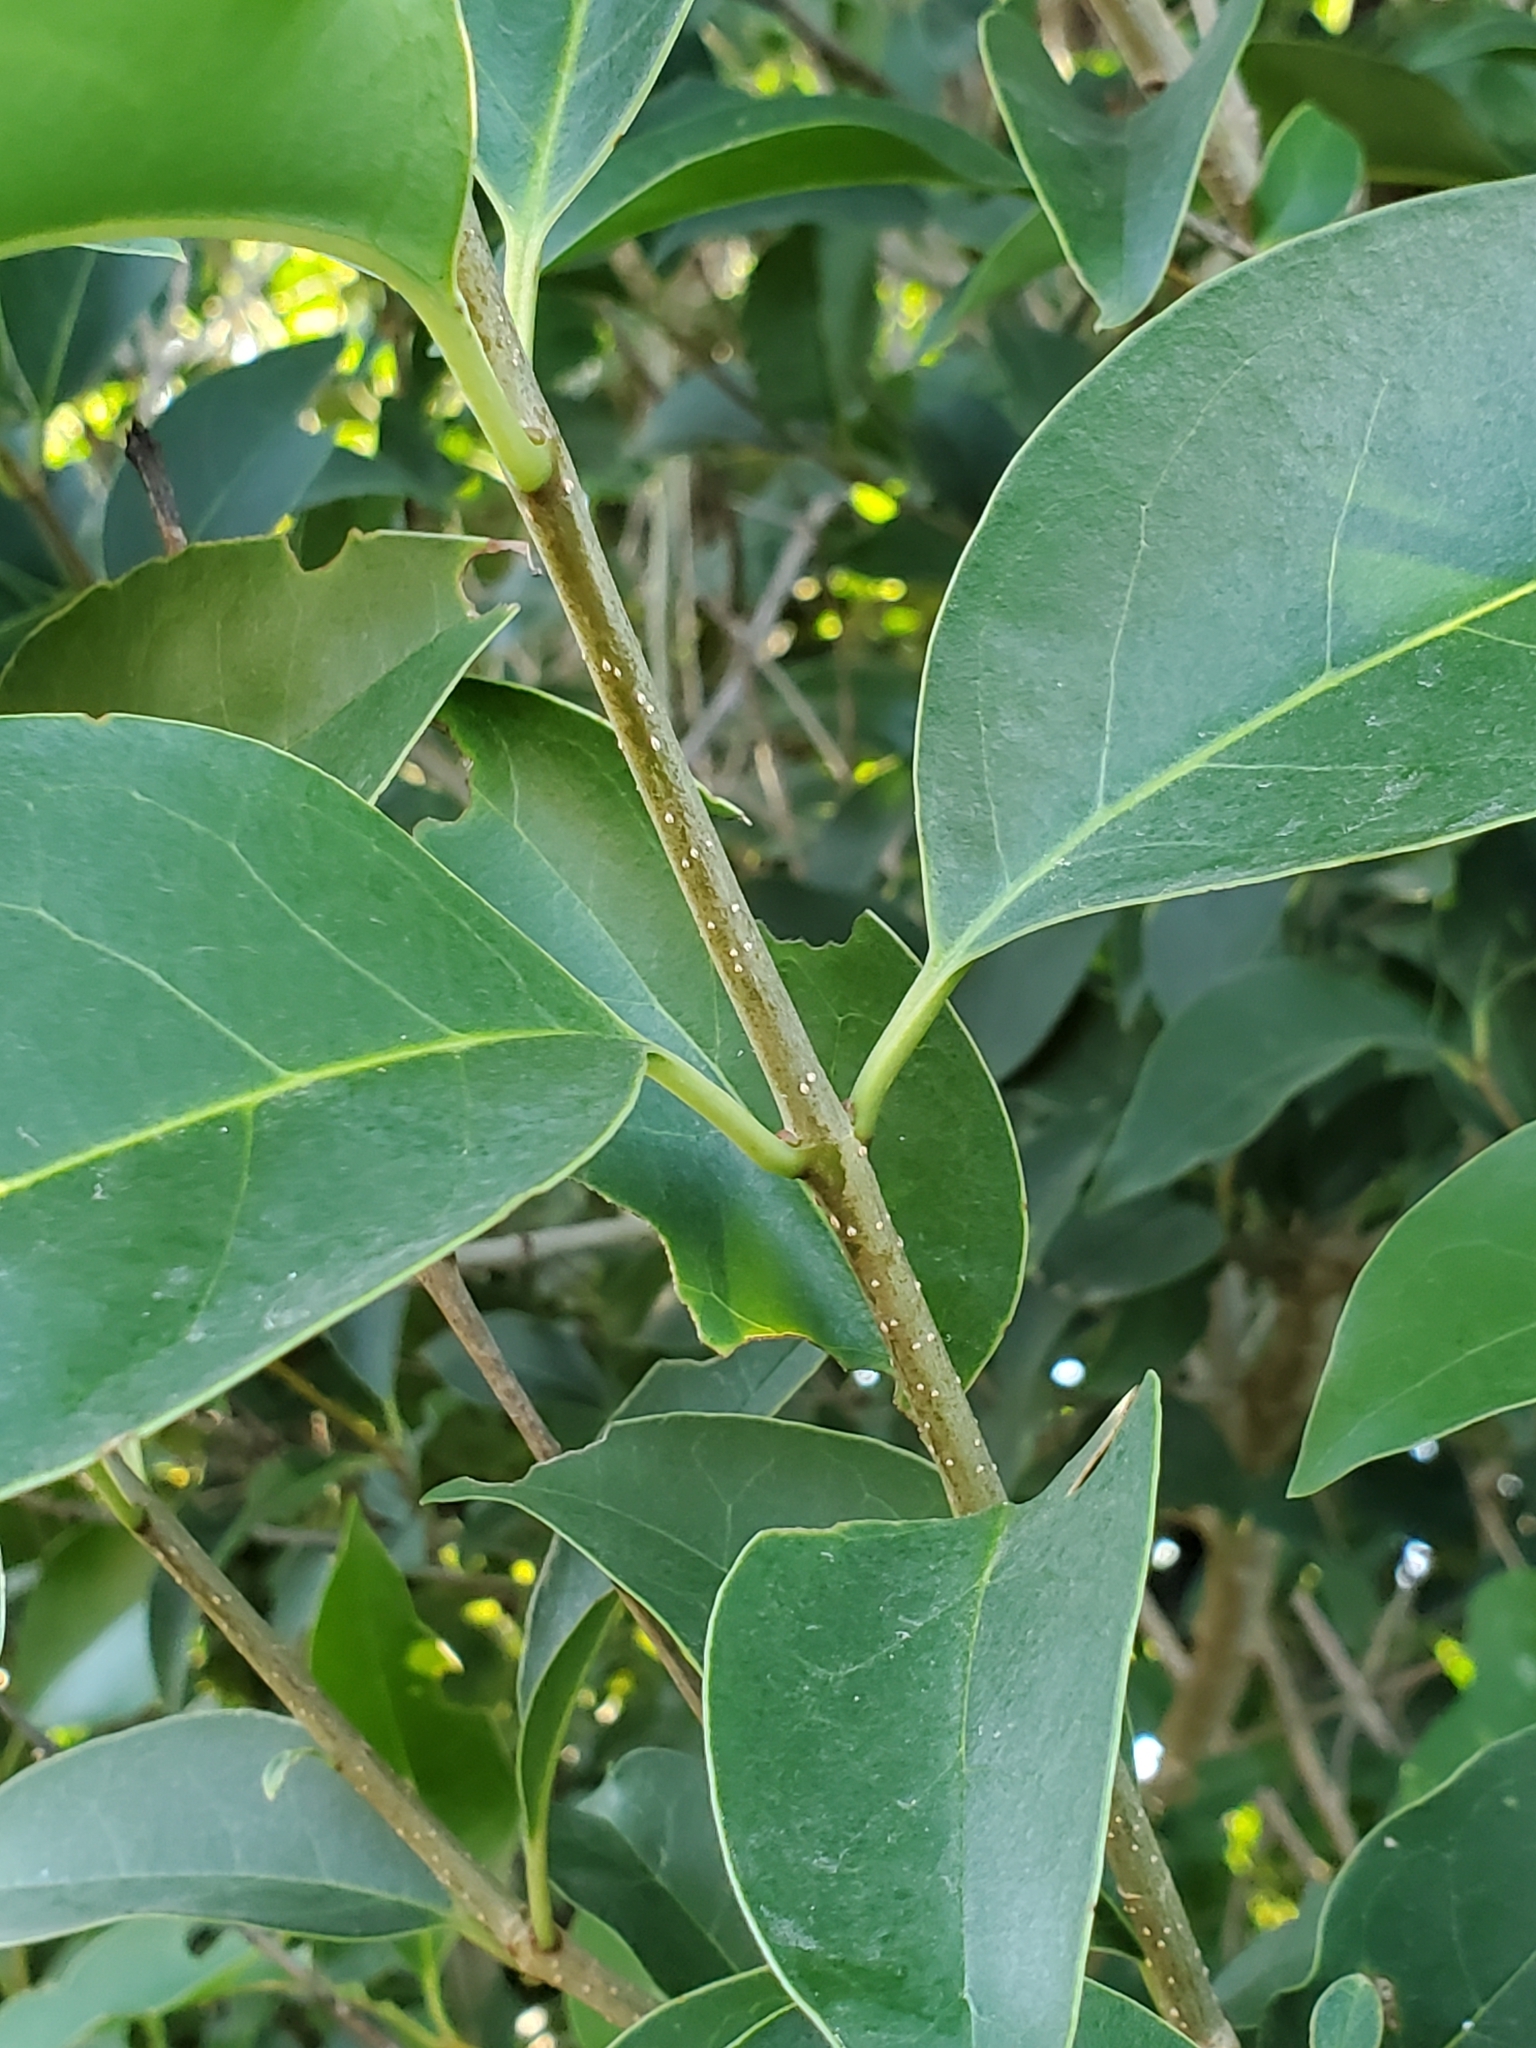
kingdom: Plantae
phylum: Tracheophyta
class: Magnoliopsida
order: Lamiales
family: Oleaceae
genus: Ligustrum
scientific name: Ligustrum lucidum
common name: Glossy privet
